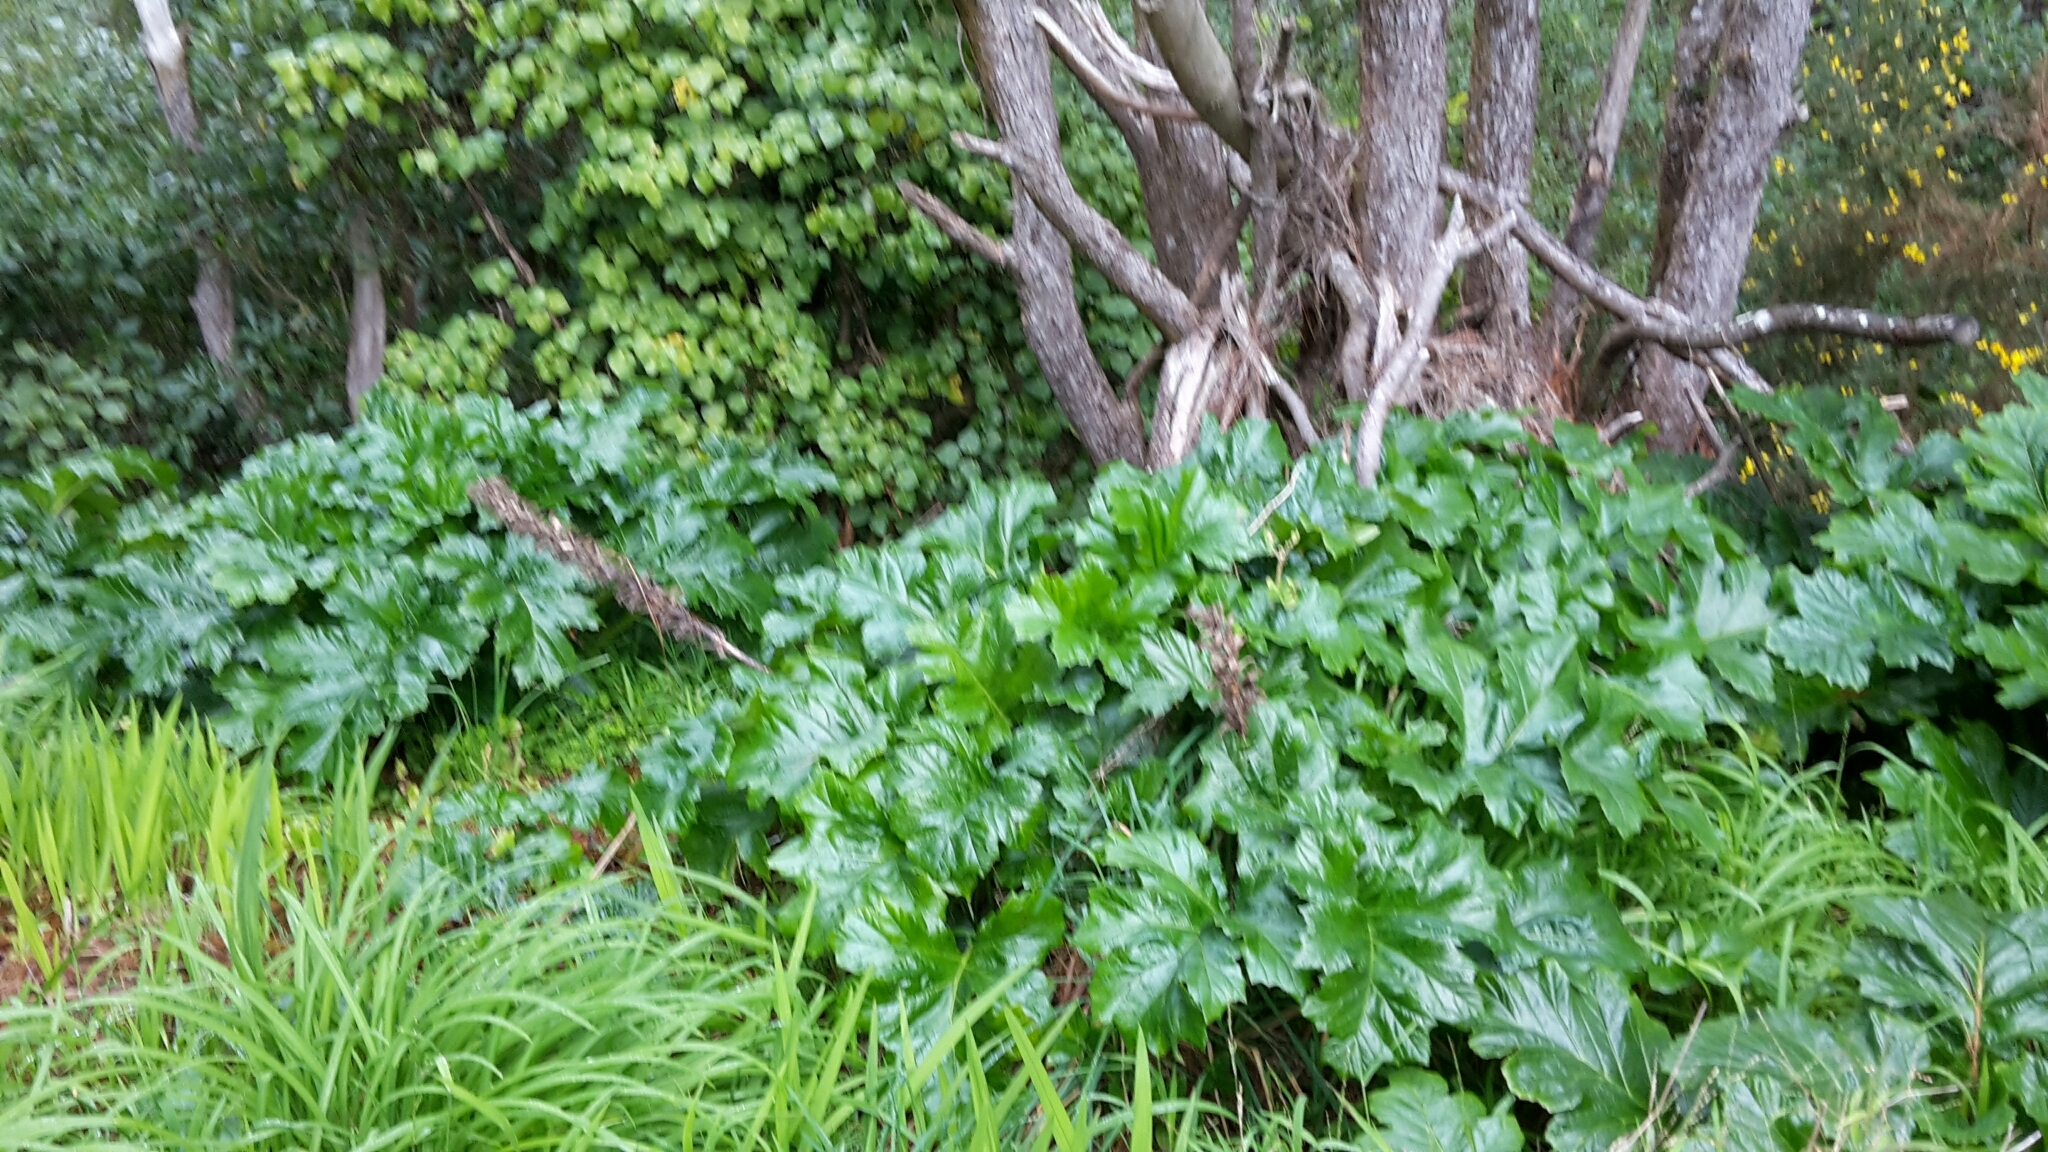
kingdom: Plantae
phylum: Tracheophyta
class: Magnoliopsida
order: Lamiales
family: Acanthaceae
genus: Acanthus
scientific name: Acanthus mollis
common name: Bear's-breech
